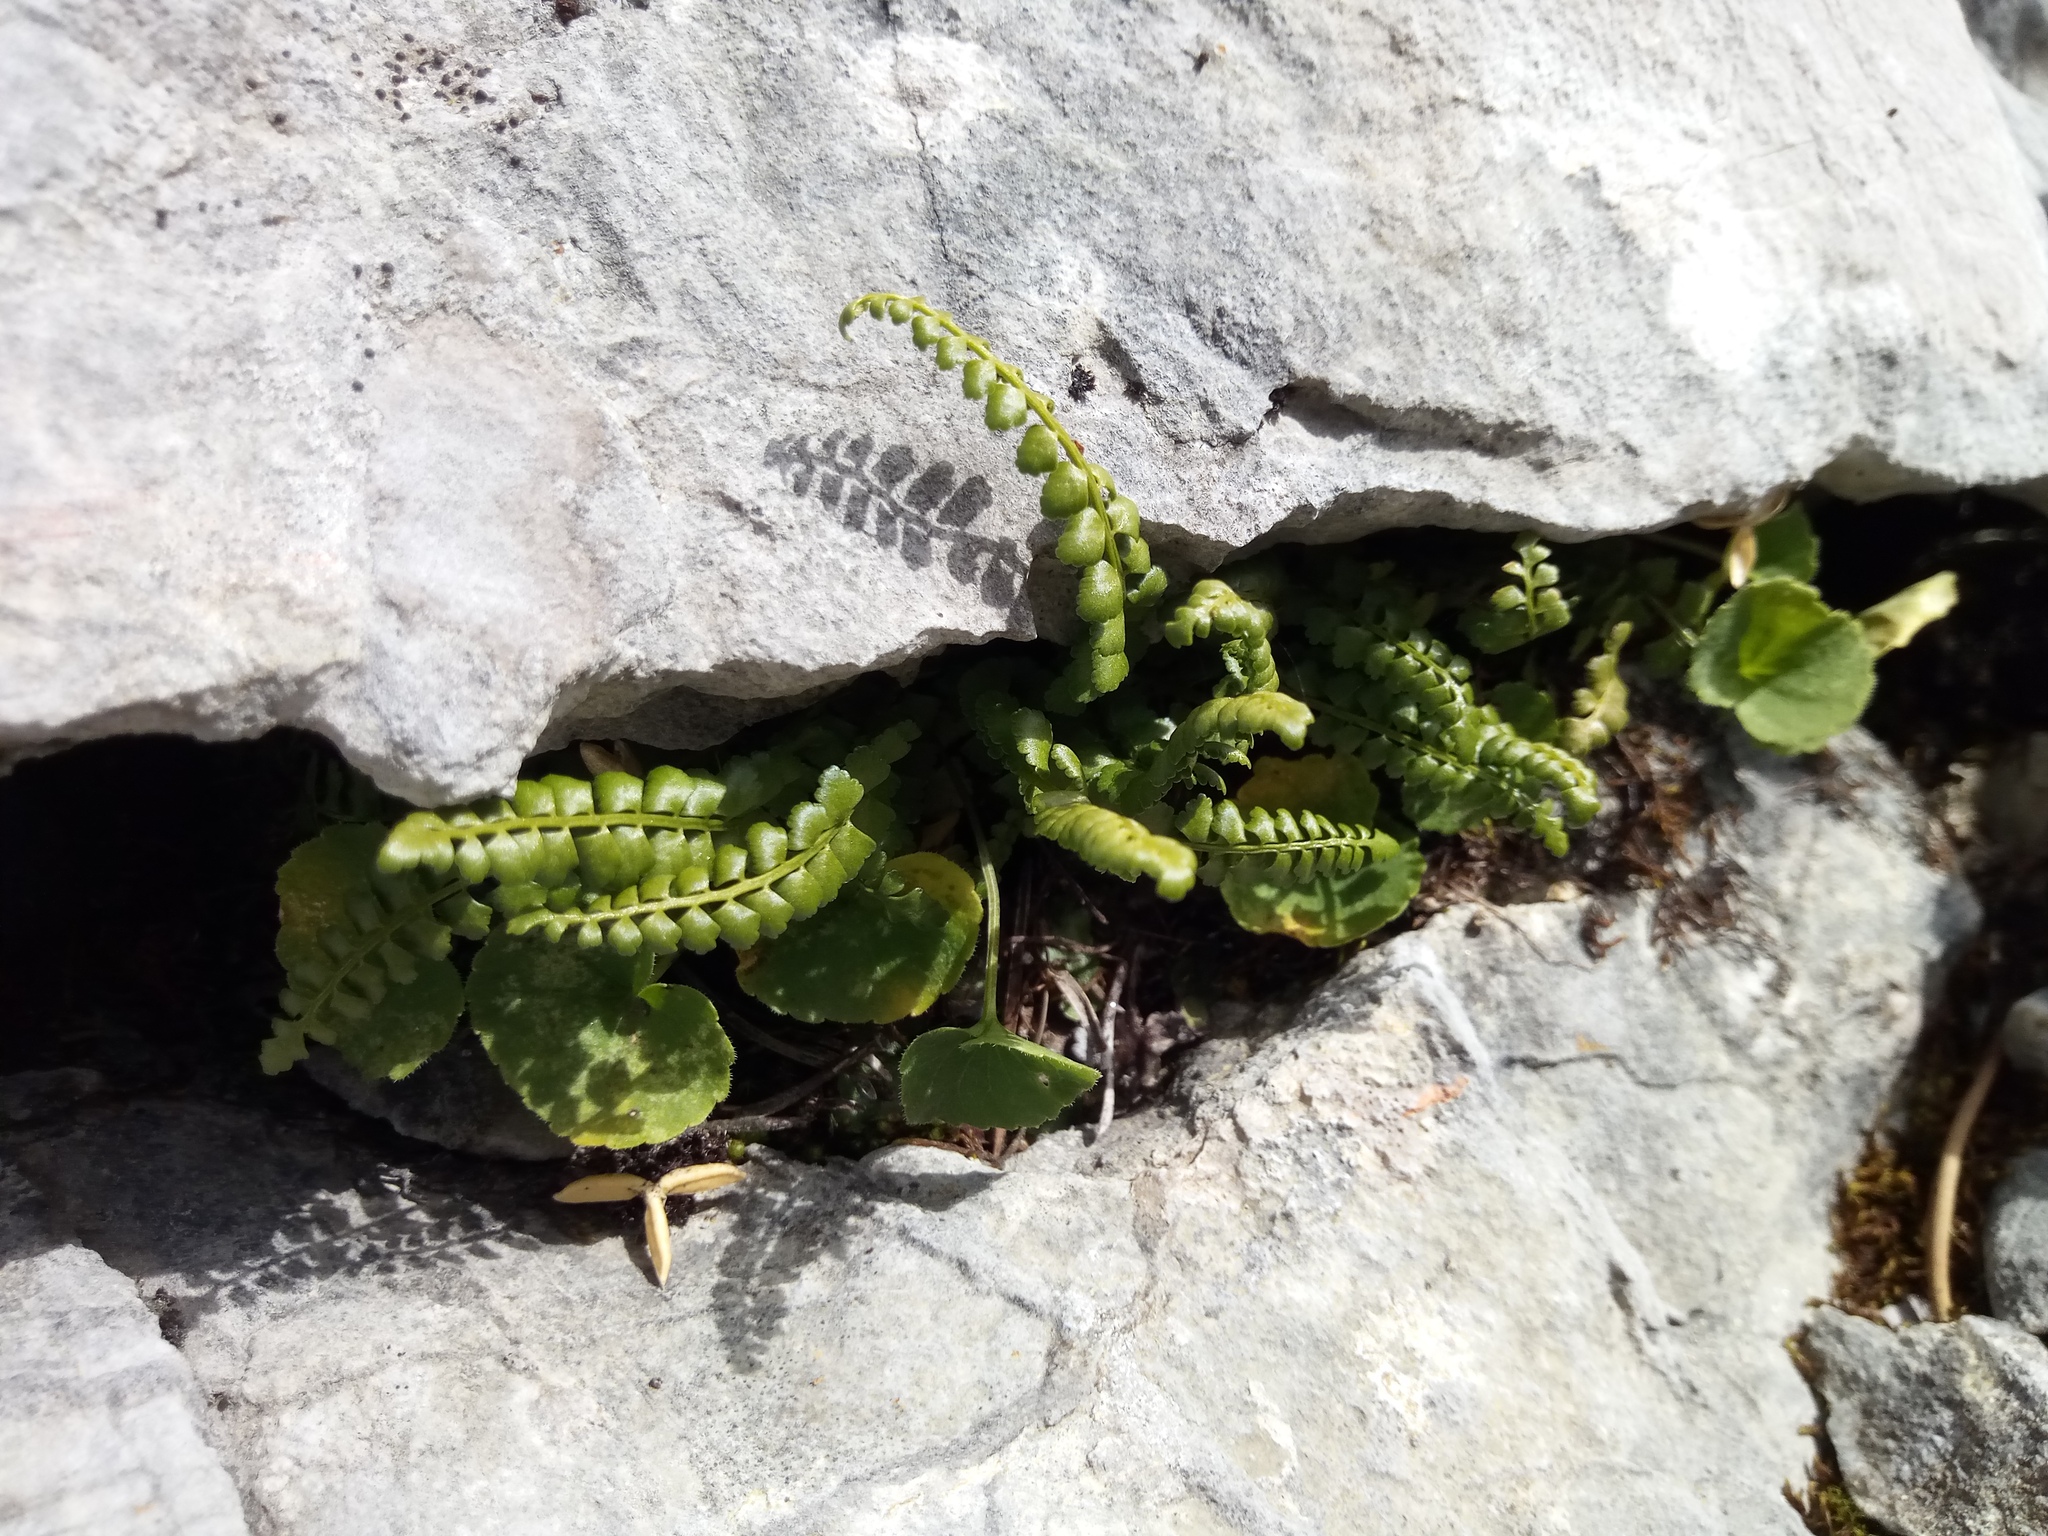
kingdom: Plantae
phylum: Tracheophyta
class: Polypodiopsida
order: Polypodiales
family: Aspleniaceae
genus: Asplenium
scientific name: Asplenium viride
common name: Green spleenwort
